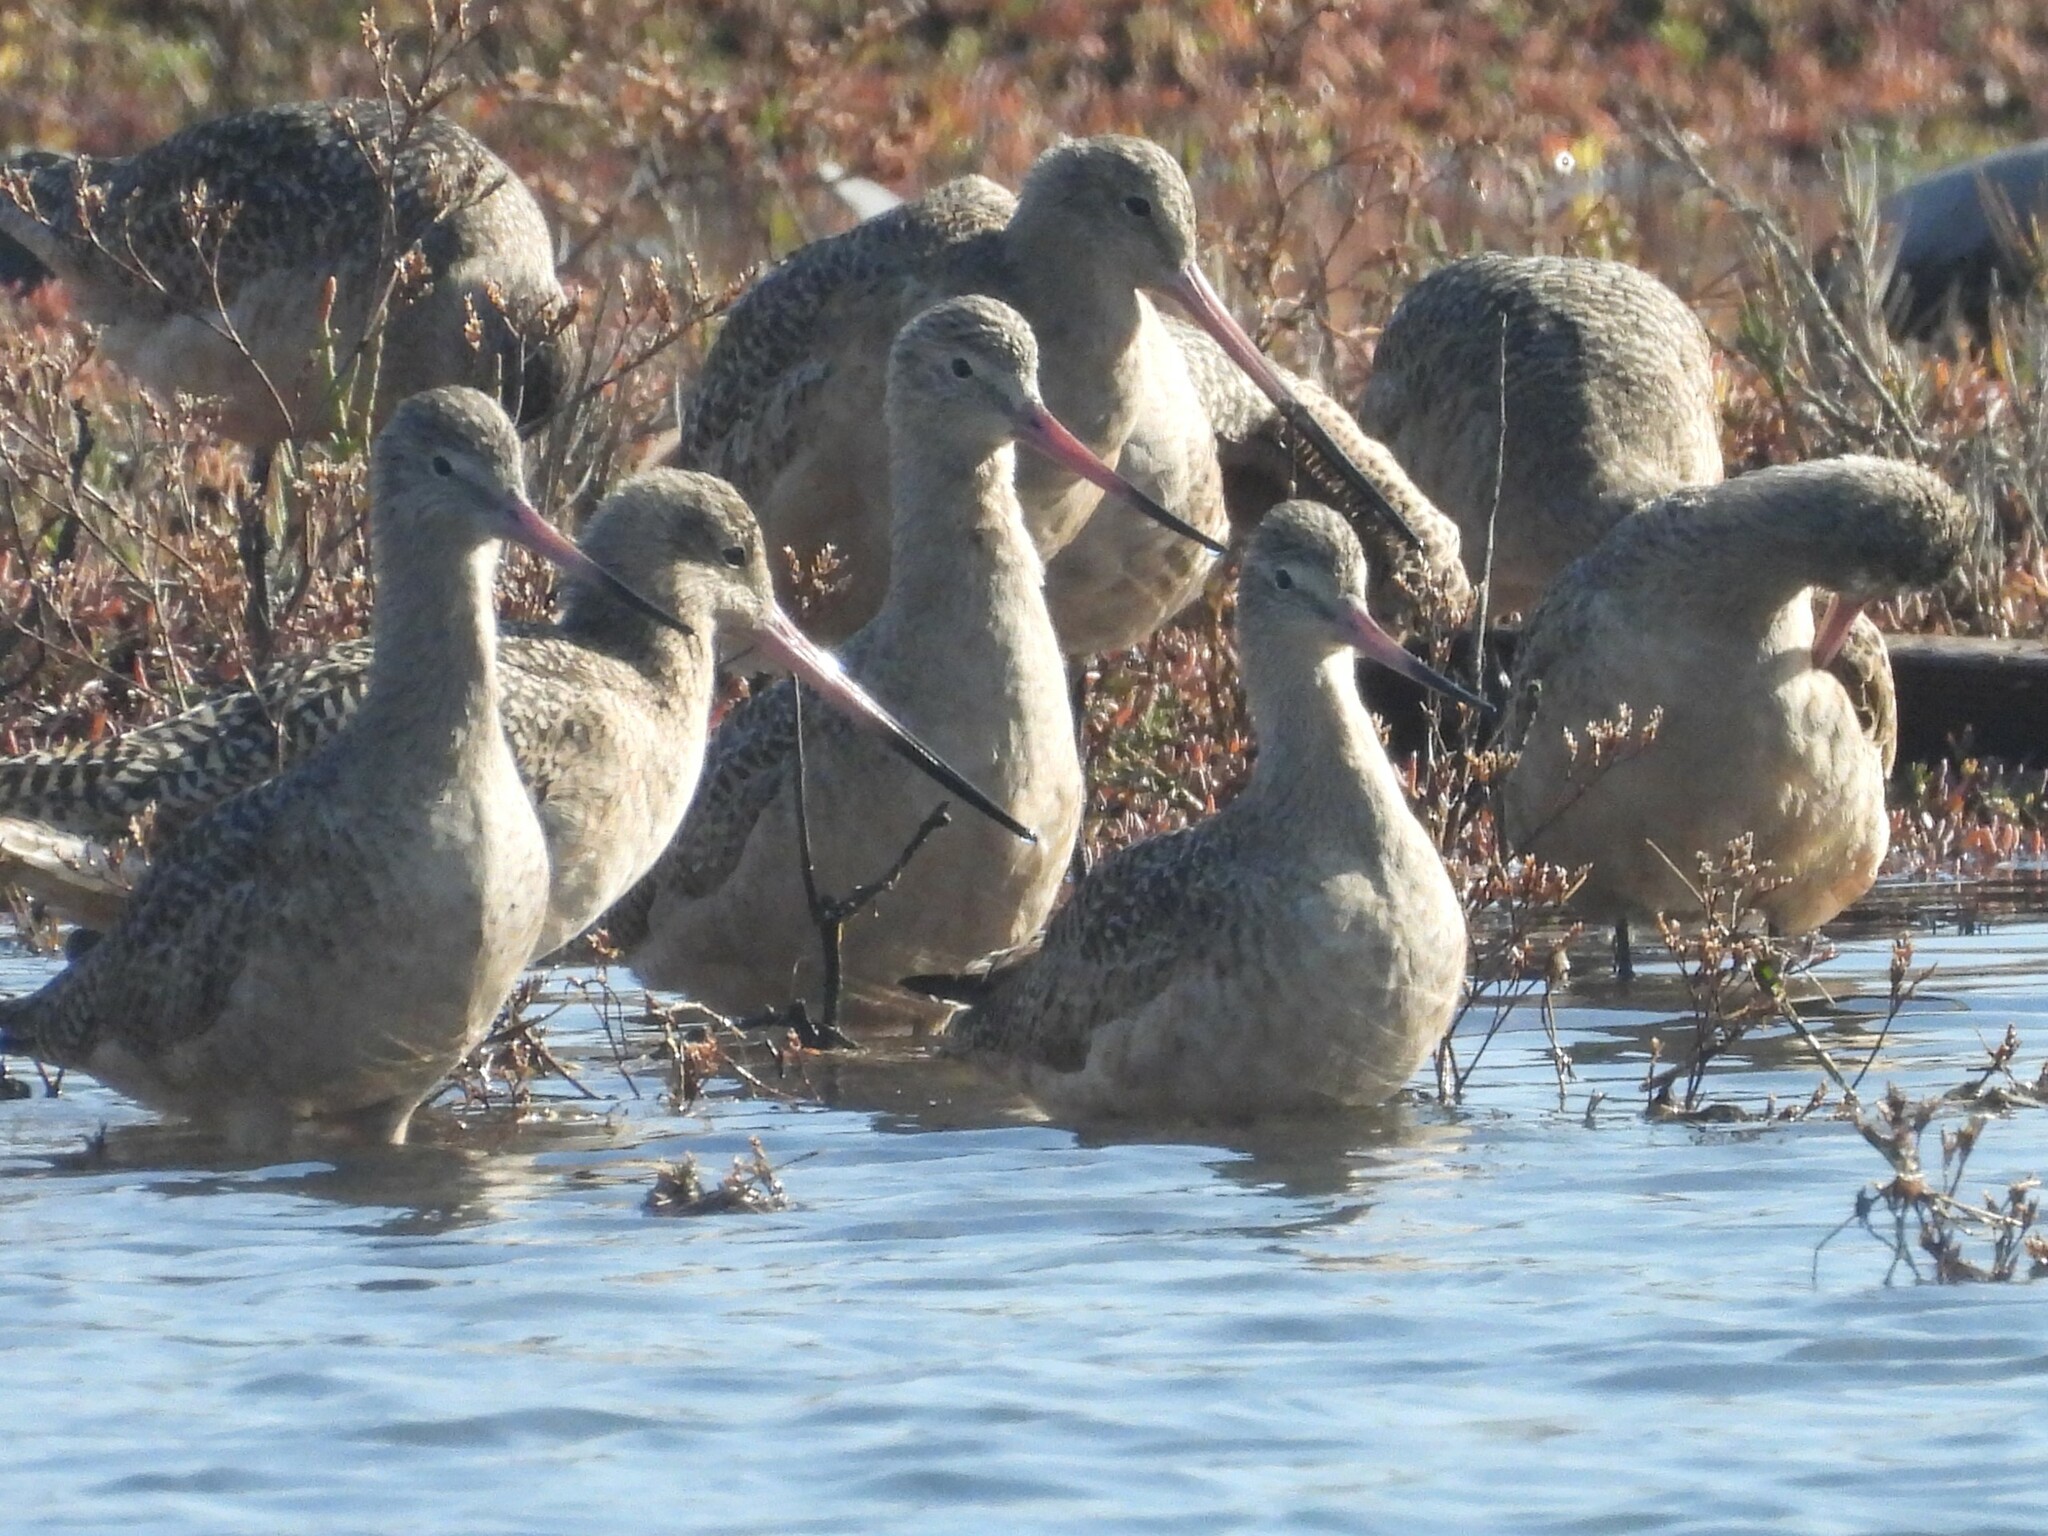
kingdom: Animalia
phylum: Chordata
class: Aves
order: Charadriiformes
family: Scolopacidae
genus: Limosa
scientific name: Limosa fedoa
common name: Marbled godwit
